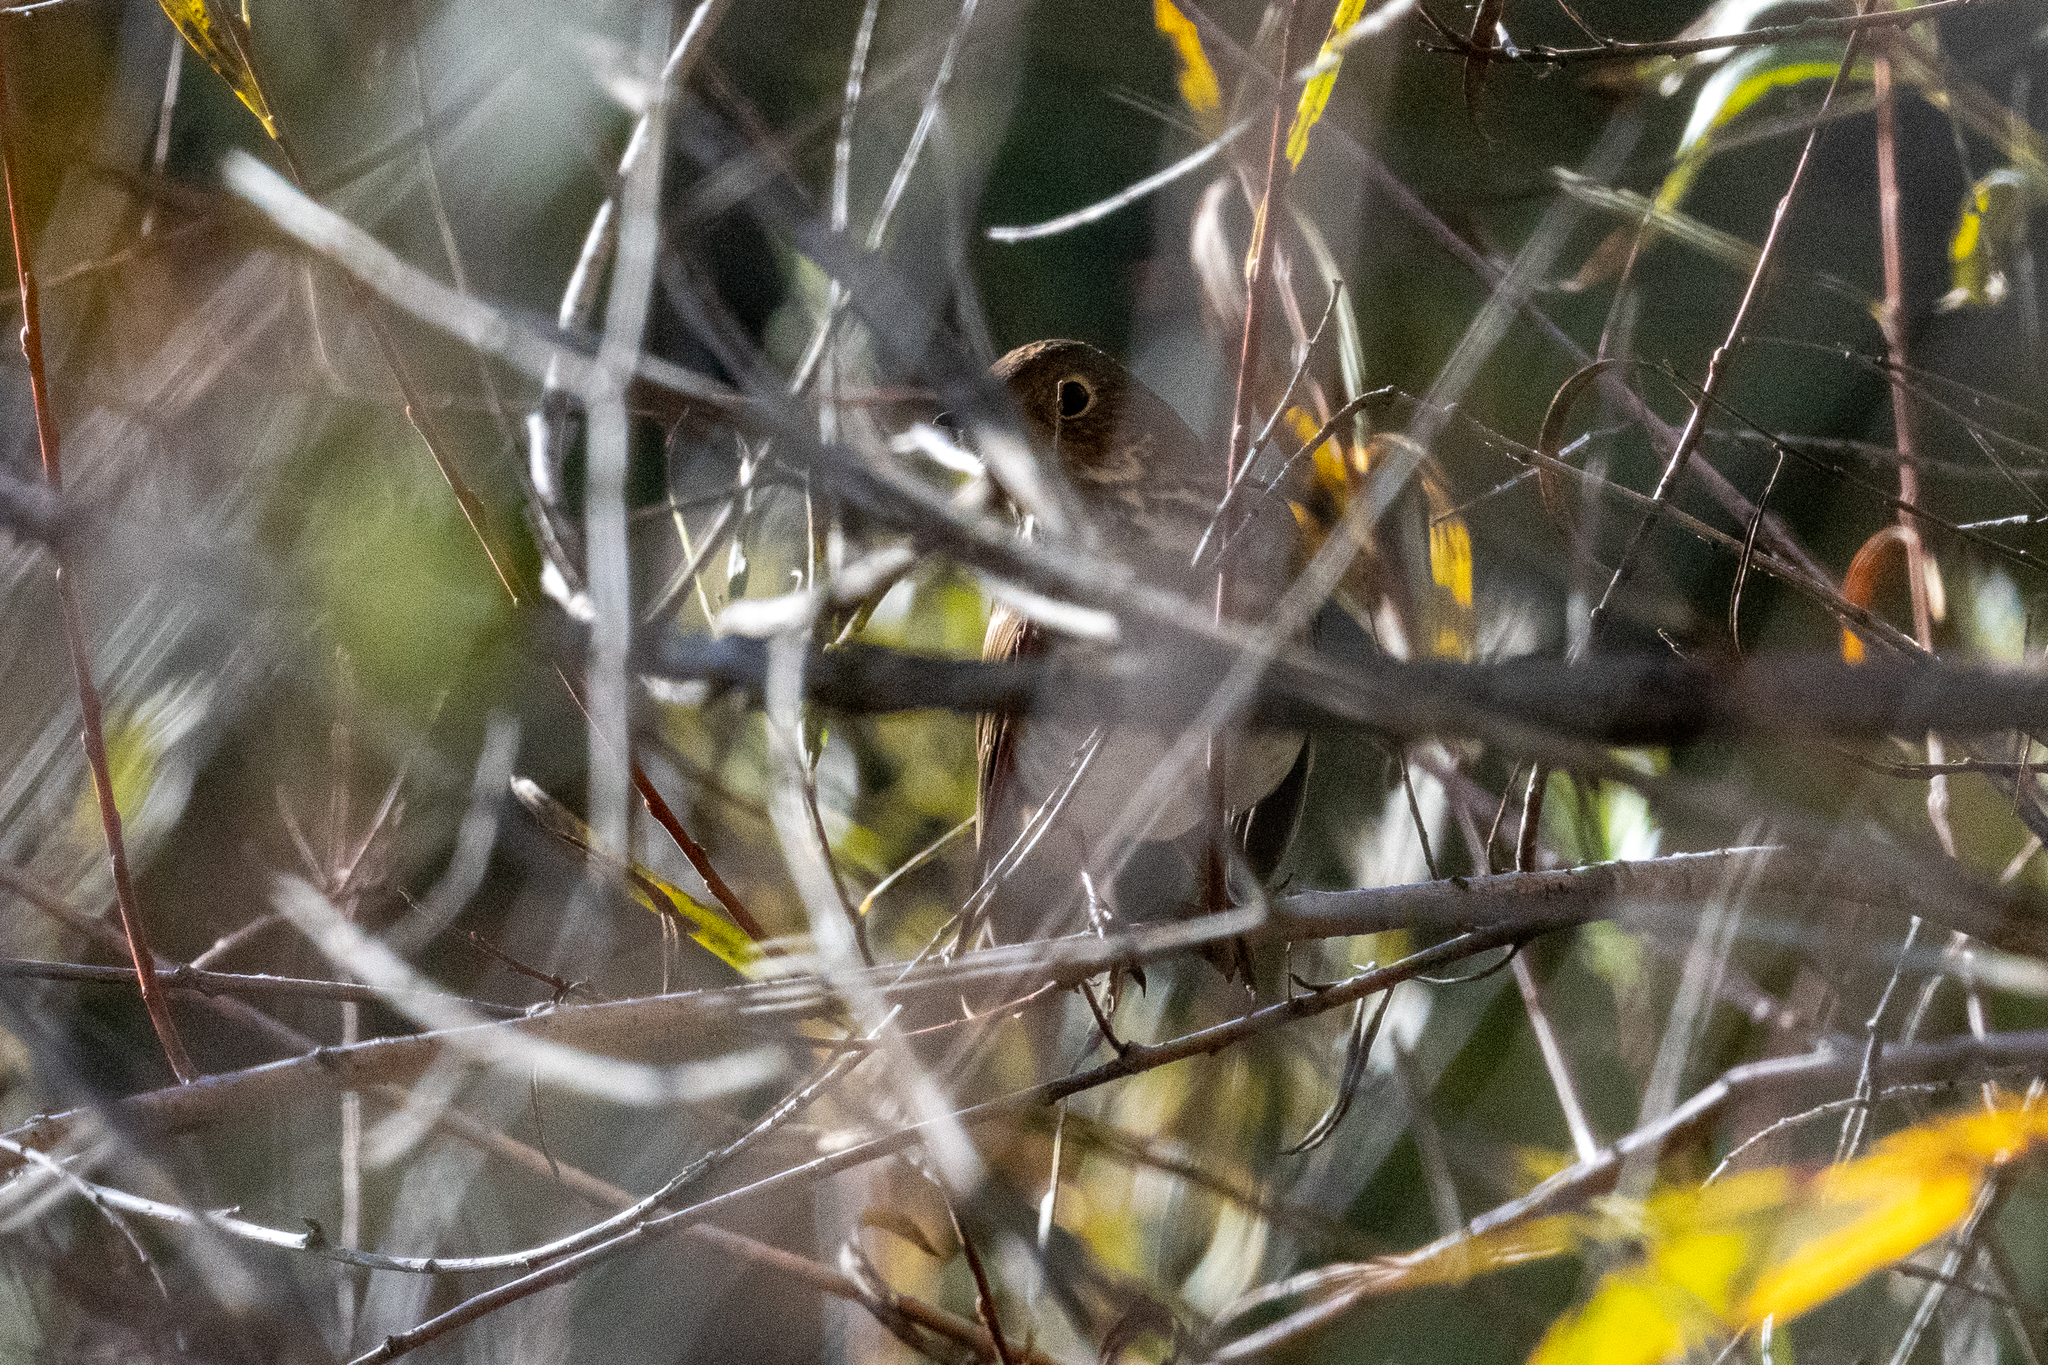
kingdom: Animalia
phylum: Chordata
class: Aves
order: Passeriformes
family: Turdidae
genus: Catharus
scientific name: Catharus guttatus
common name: Hermit thrush
